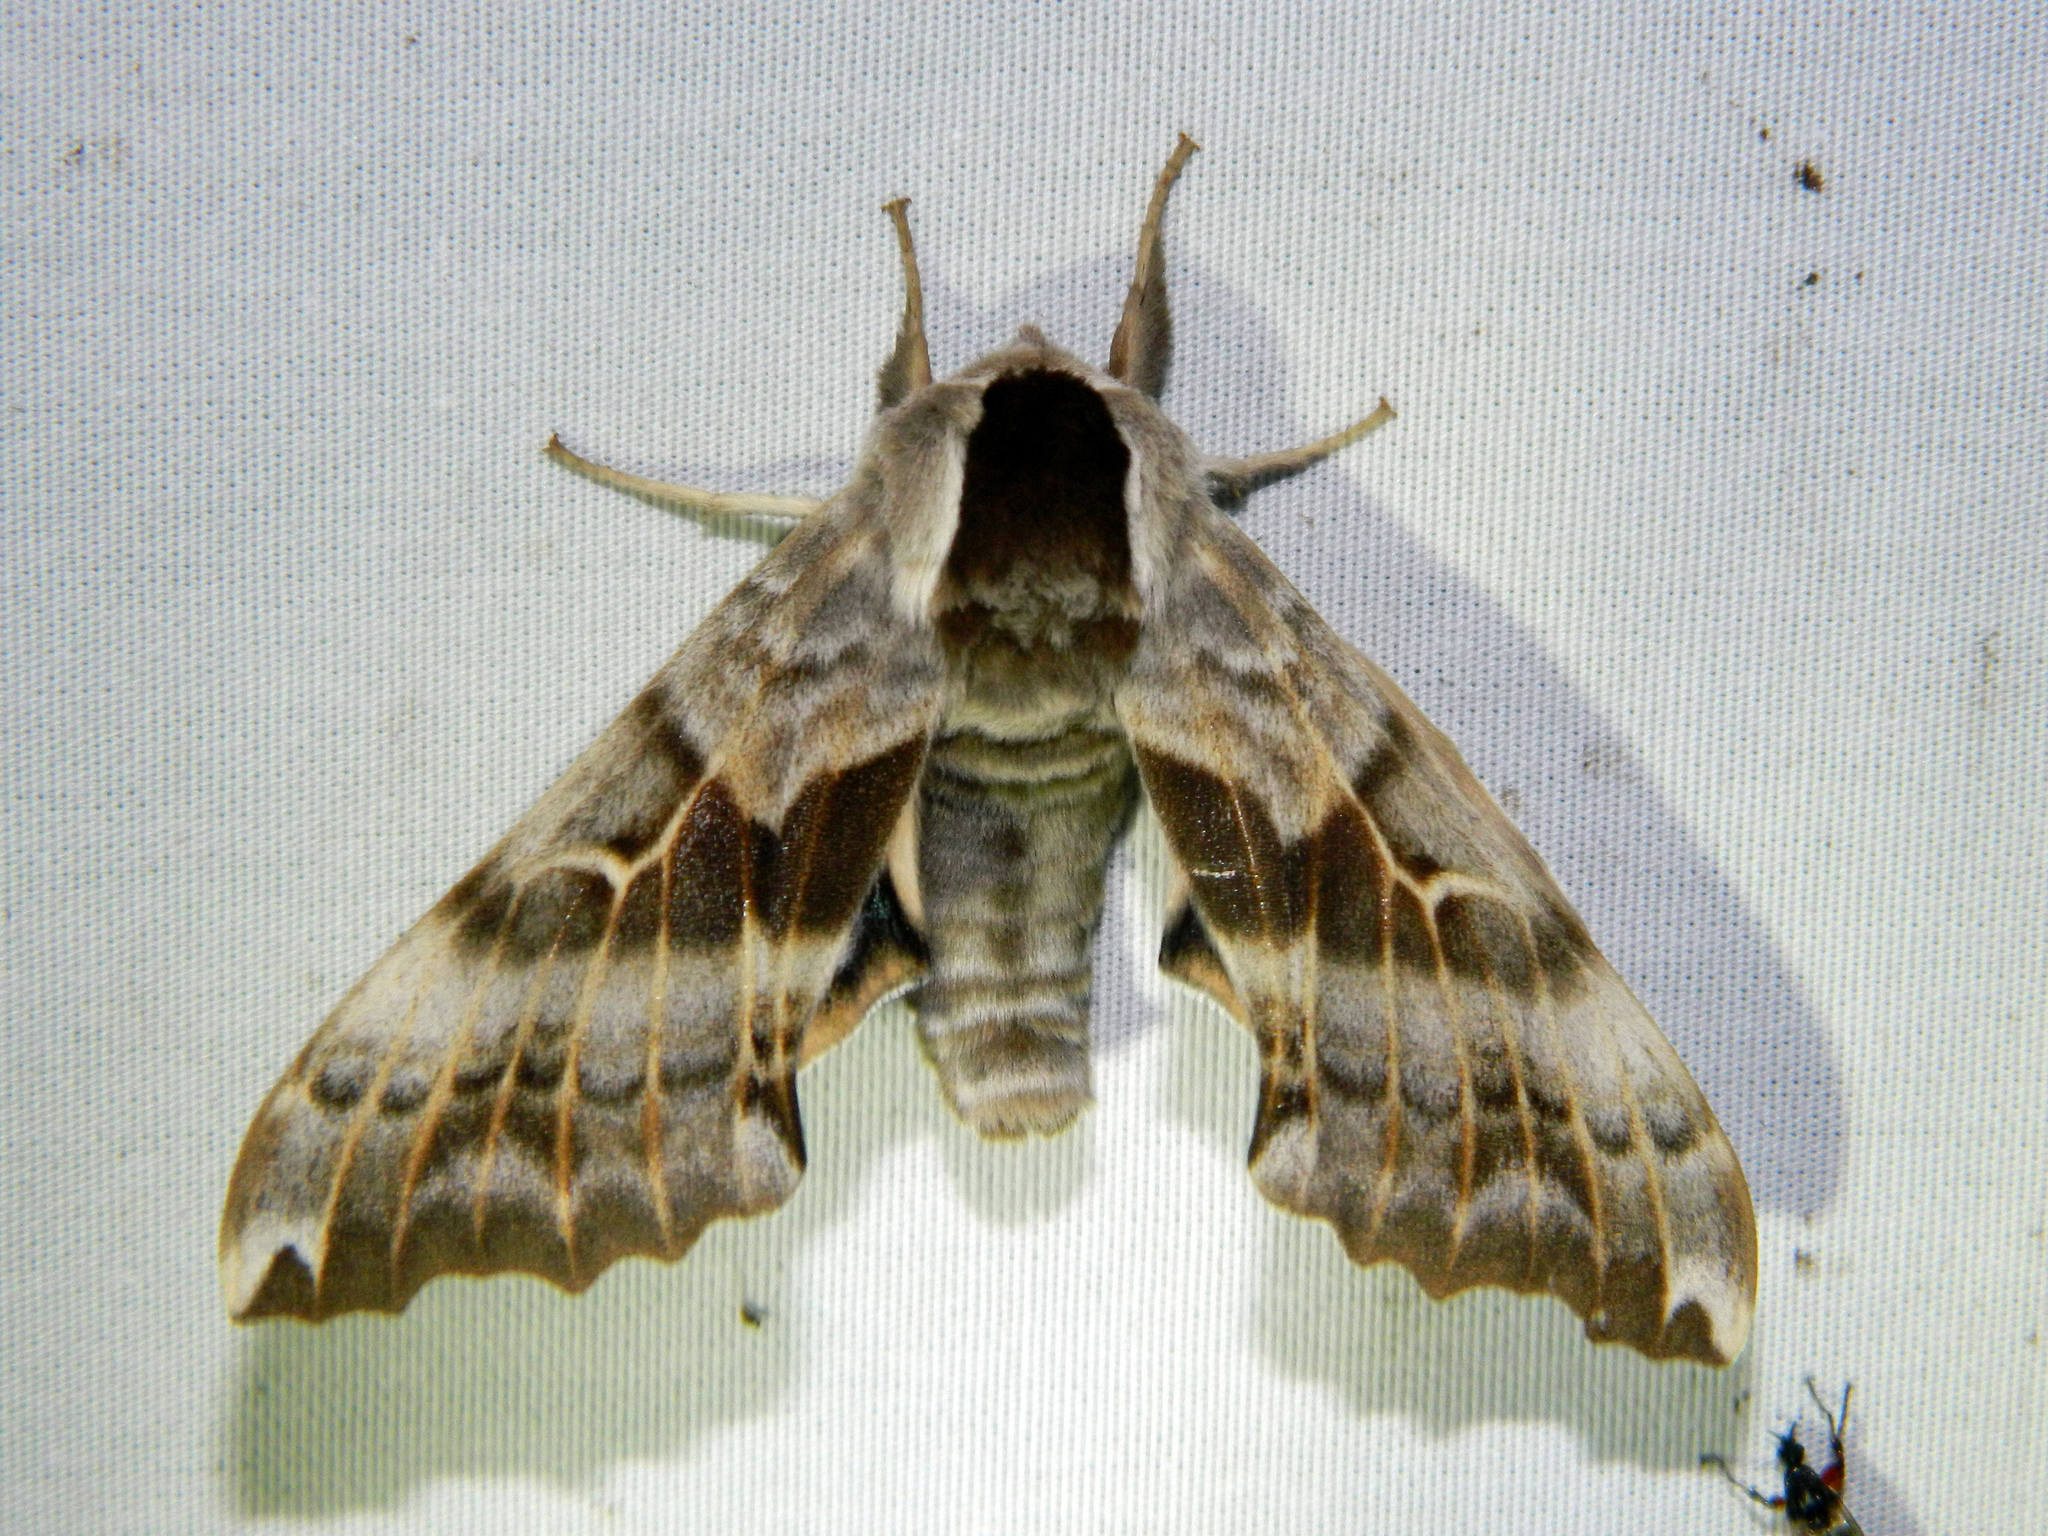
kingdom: Animalia
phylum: Arthropoda
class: Insecta
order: Lepidoptera
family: Sphingidae
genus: Smerinthus
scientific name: Smerinthus cerisyi
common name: Cerisy's sphinx moth
